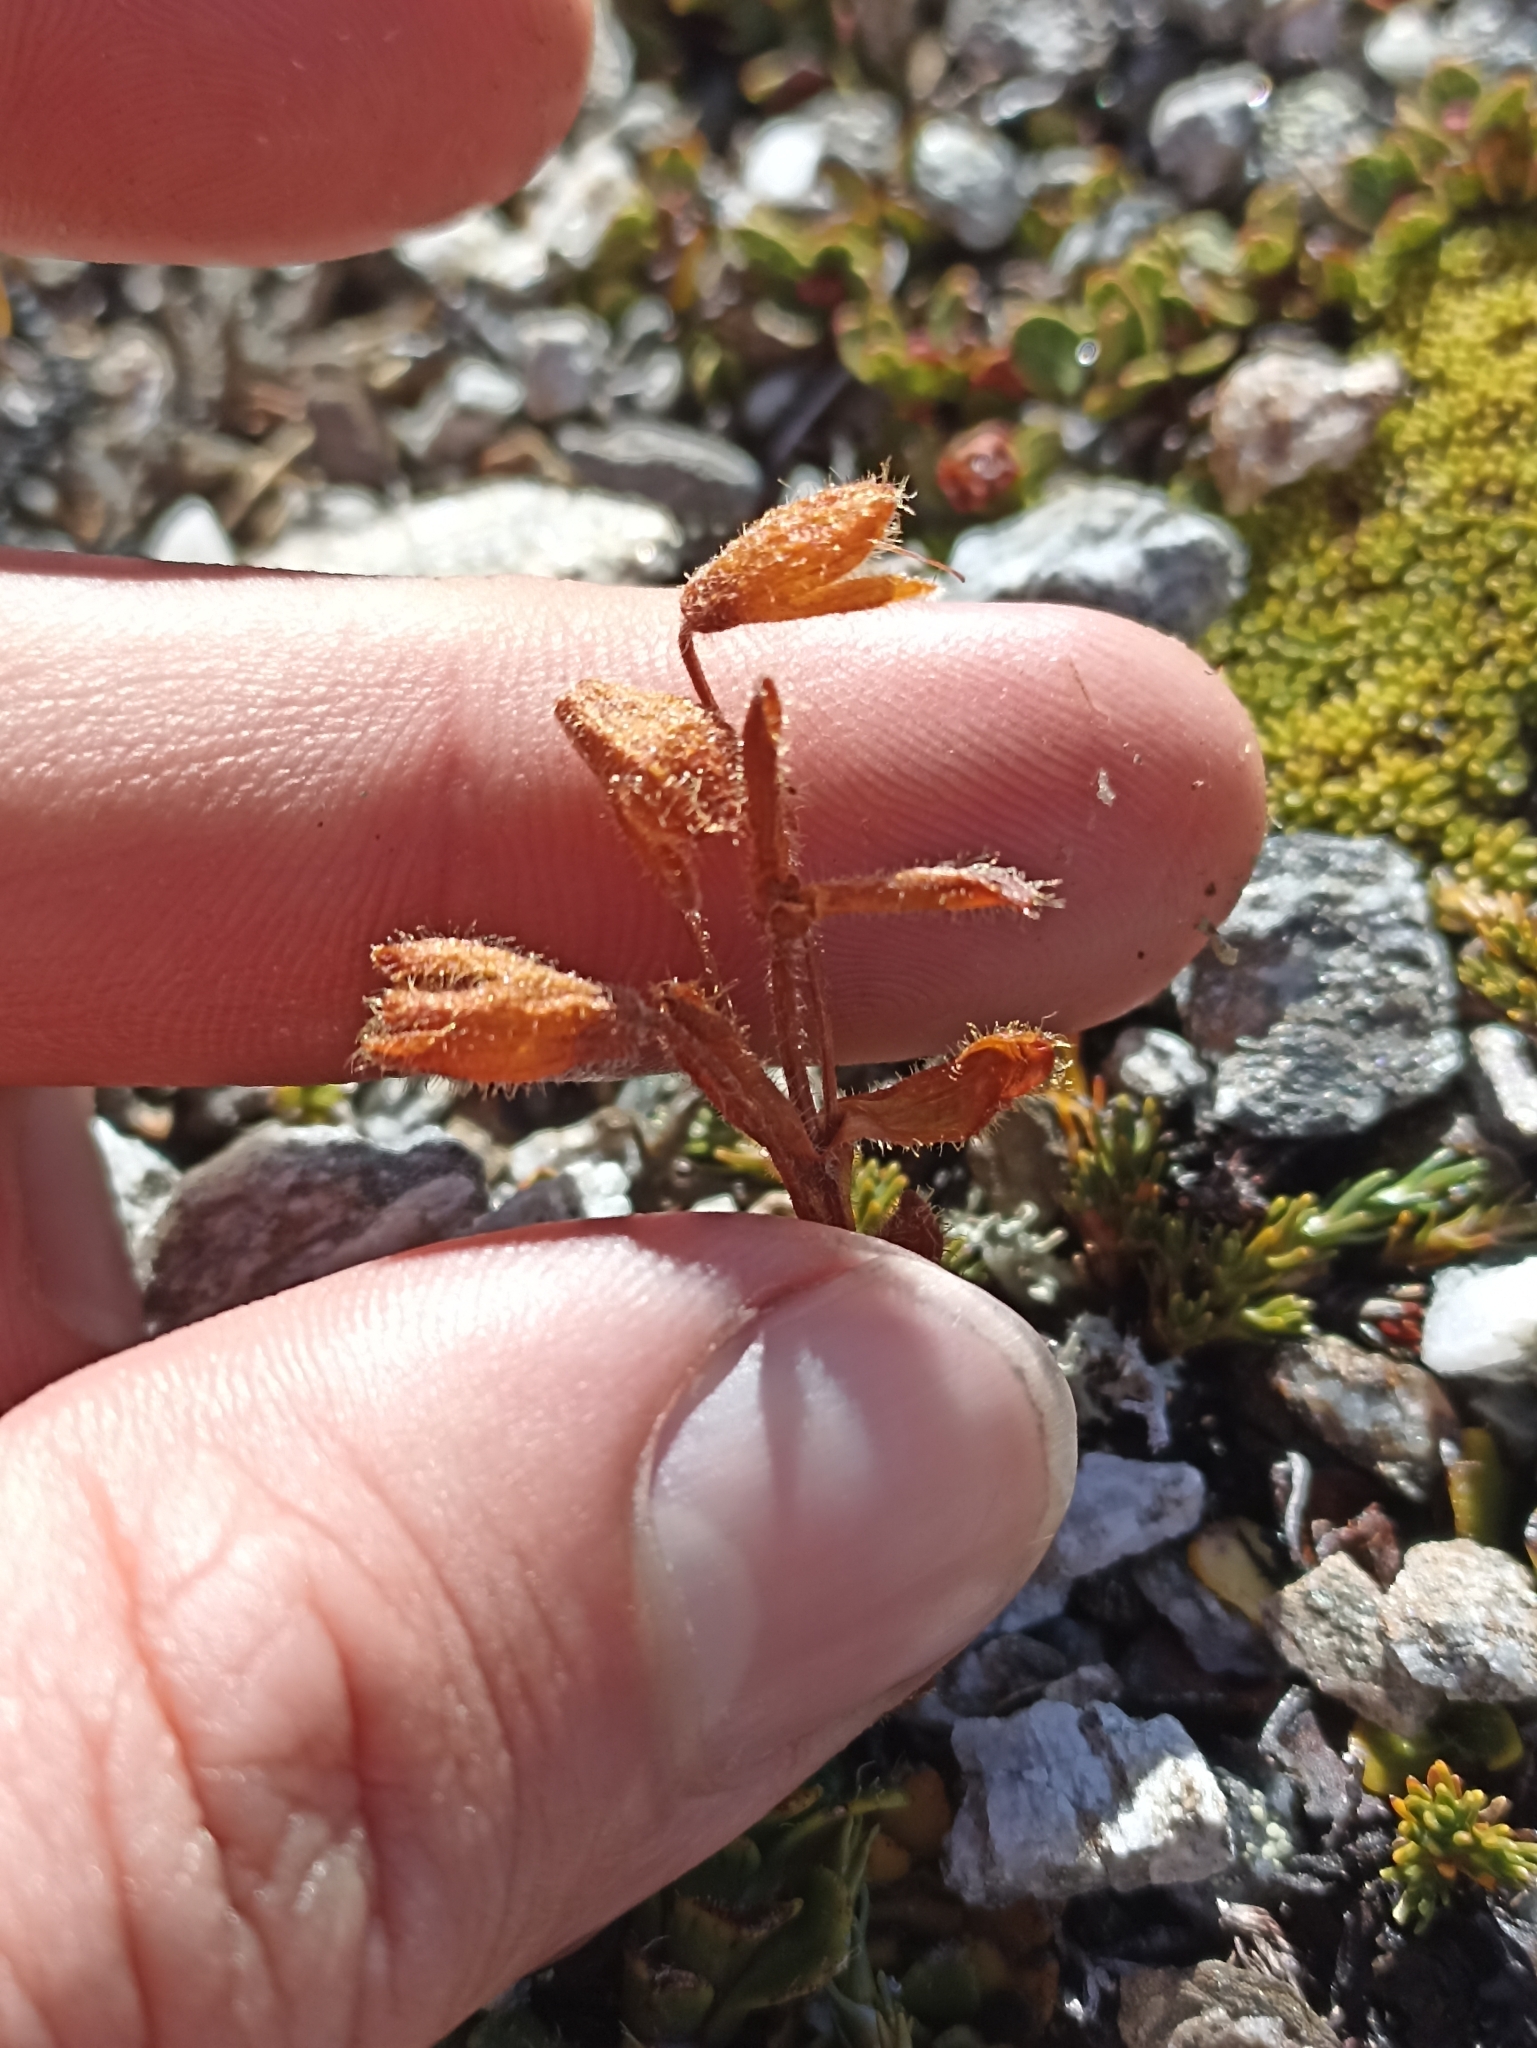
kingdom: Plantae
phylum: Tracheophyta
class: Magnoliopsida
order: Lamiales
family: Plantaginaceae
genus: Ourisia
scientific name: Ourisia glandulosa
